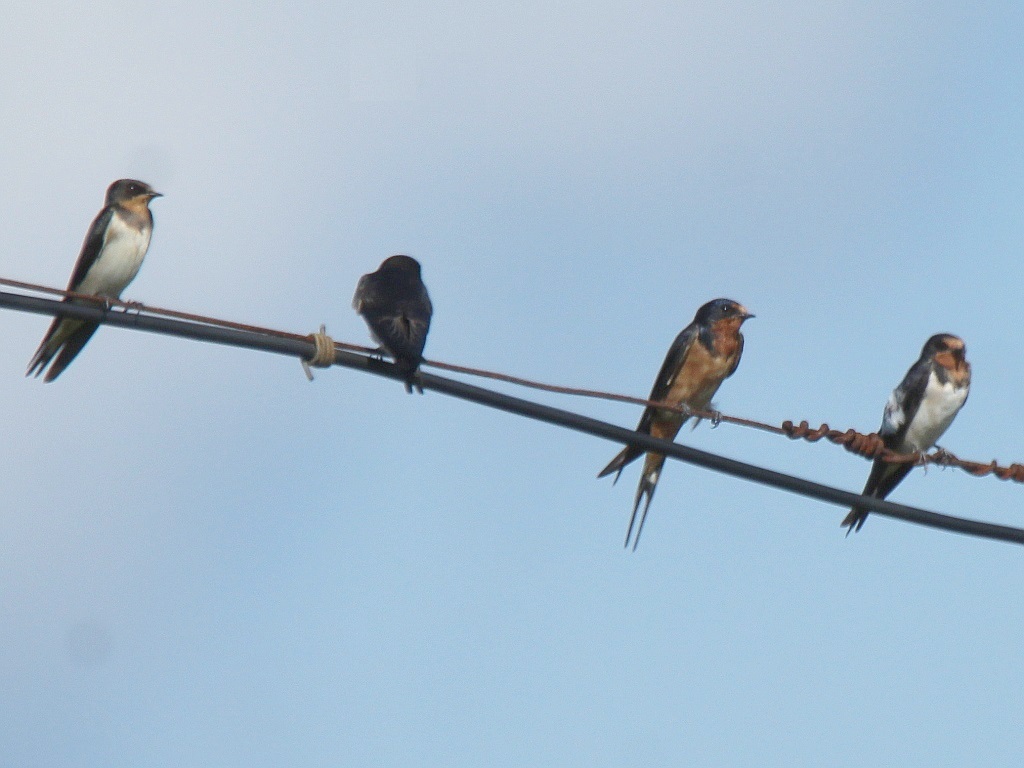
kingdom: Animalia
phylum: Chordata
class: Aves
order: Passeriformes
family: Hirundinidae
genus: Hirundo
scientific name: Hirundo rustica
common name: Barn swallow
